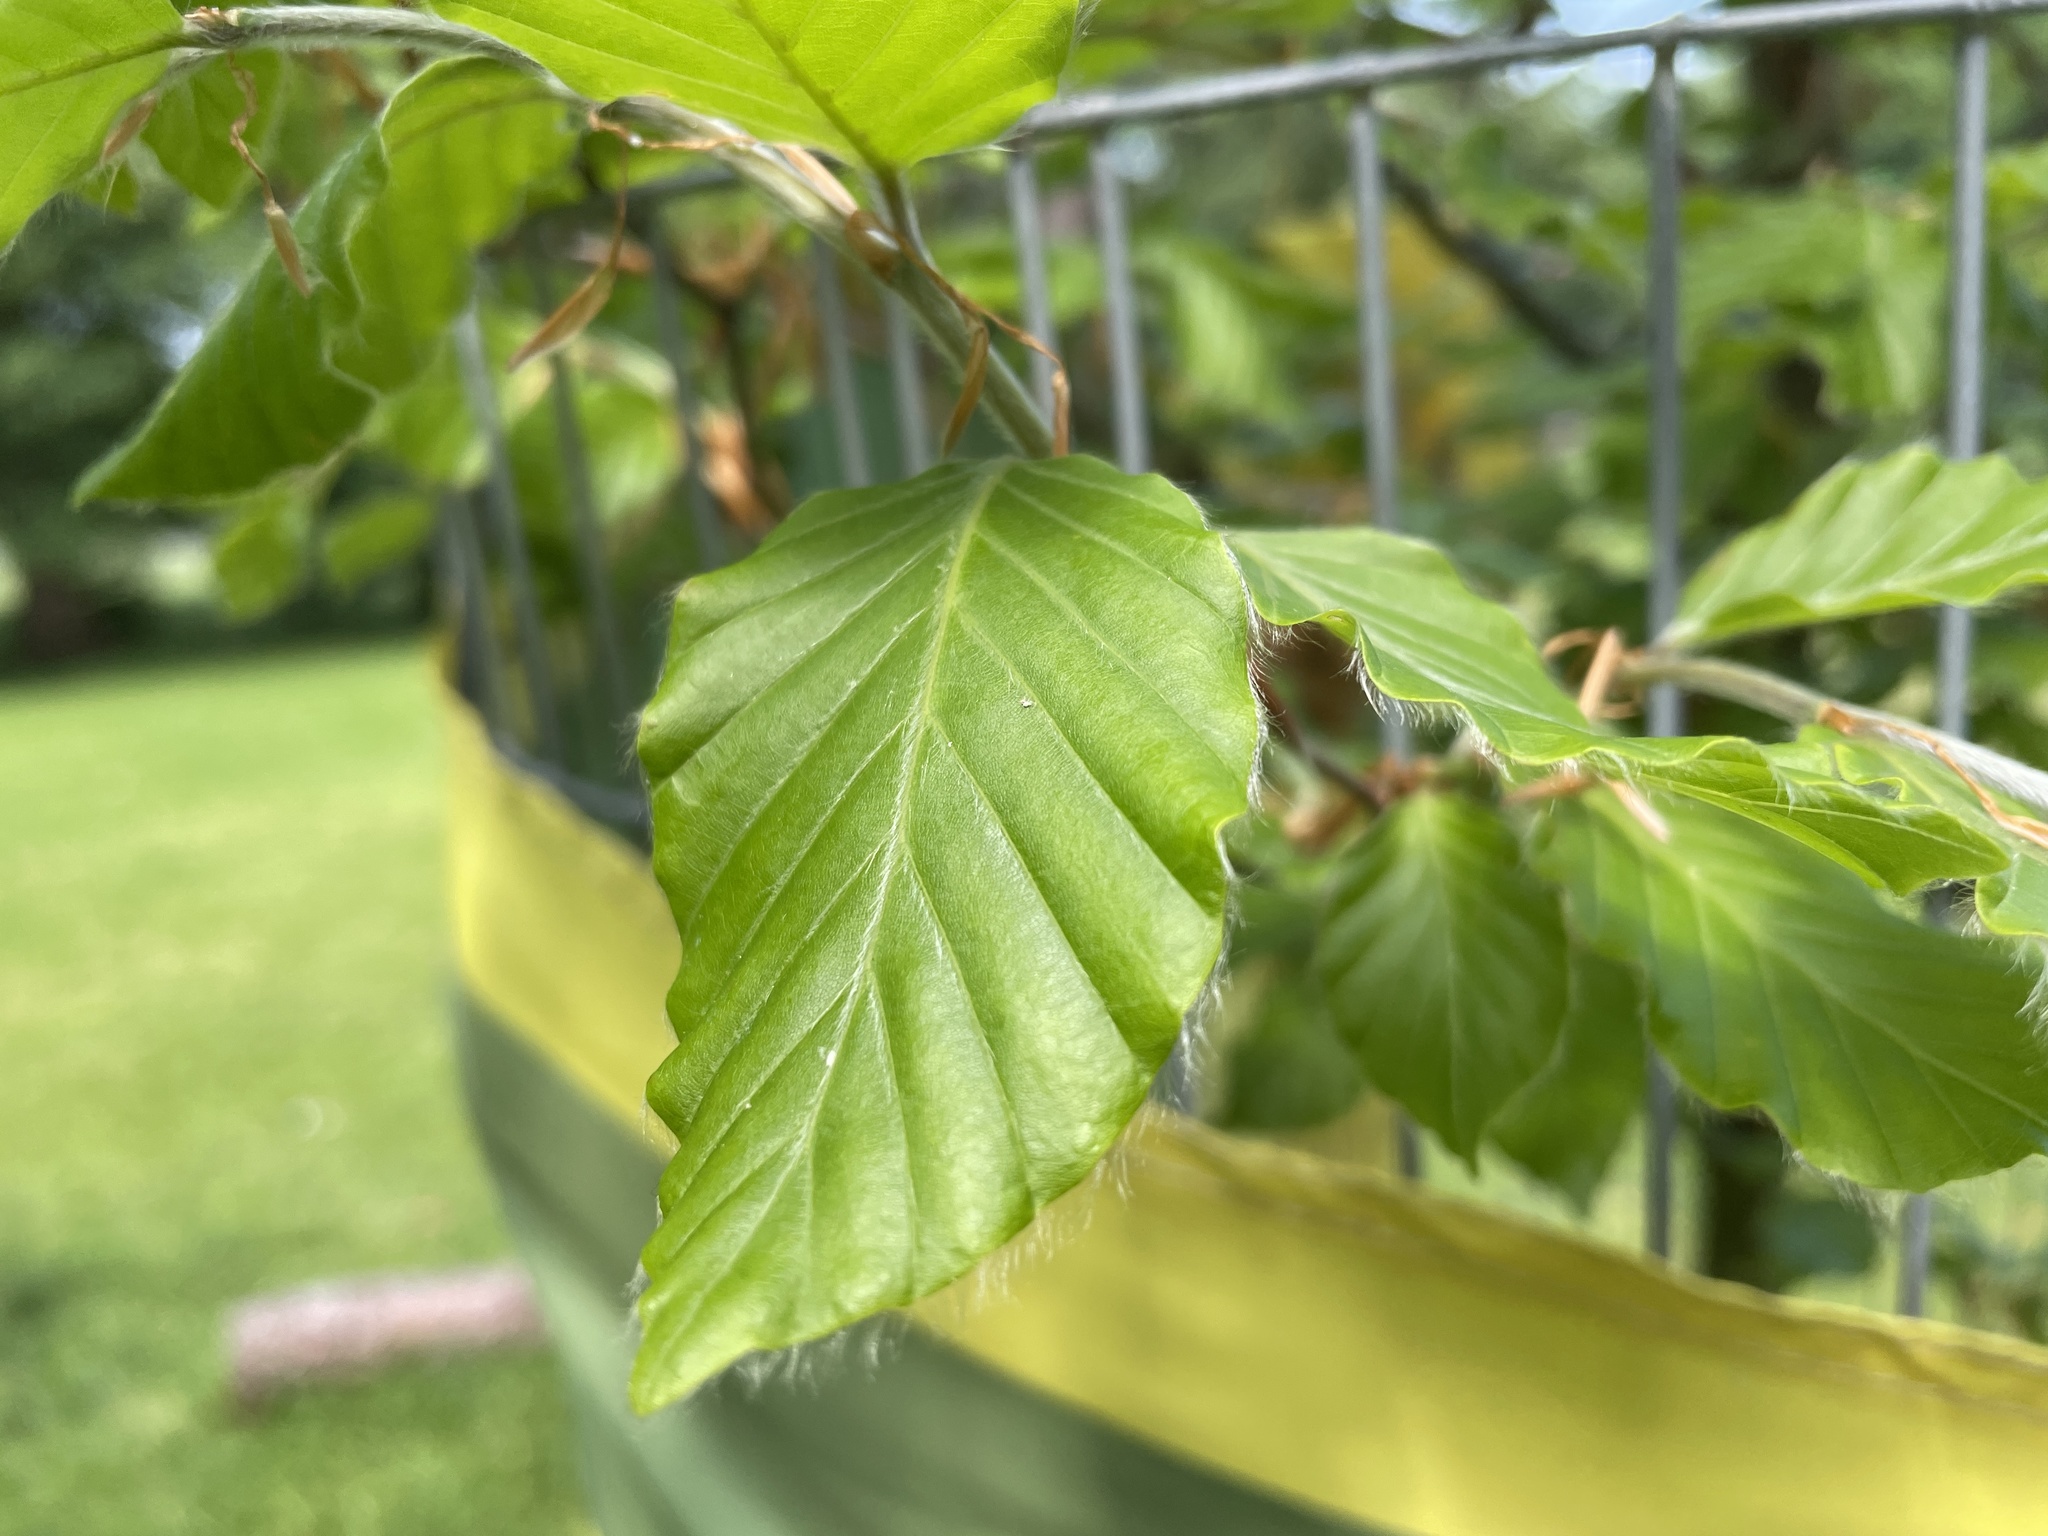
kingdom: Plantae
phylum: Tracheophyta
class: Magnoliopsida
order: Fagales
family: Fagaceae
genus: Fagus
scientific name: Fagus sylvatica
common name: Beech
